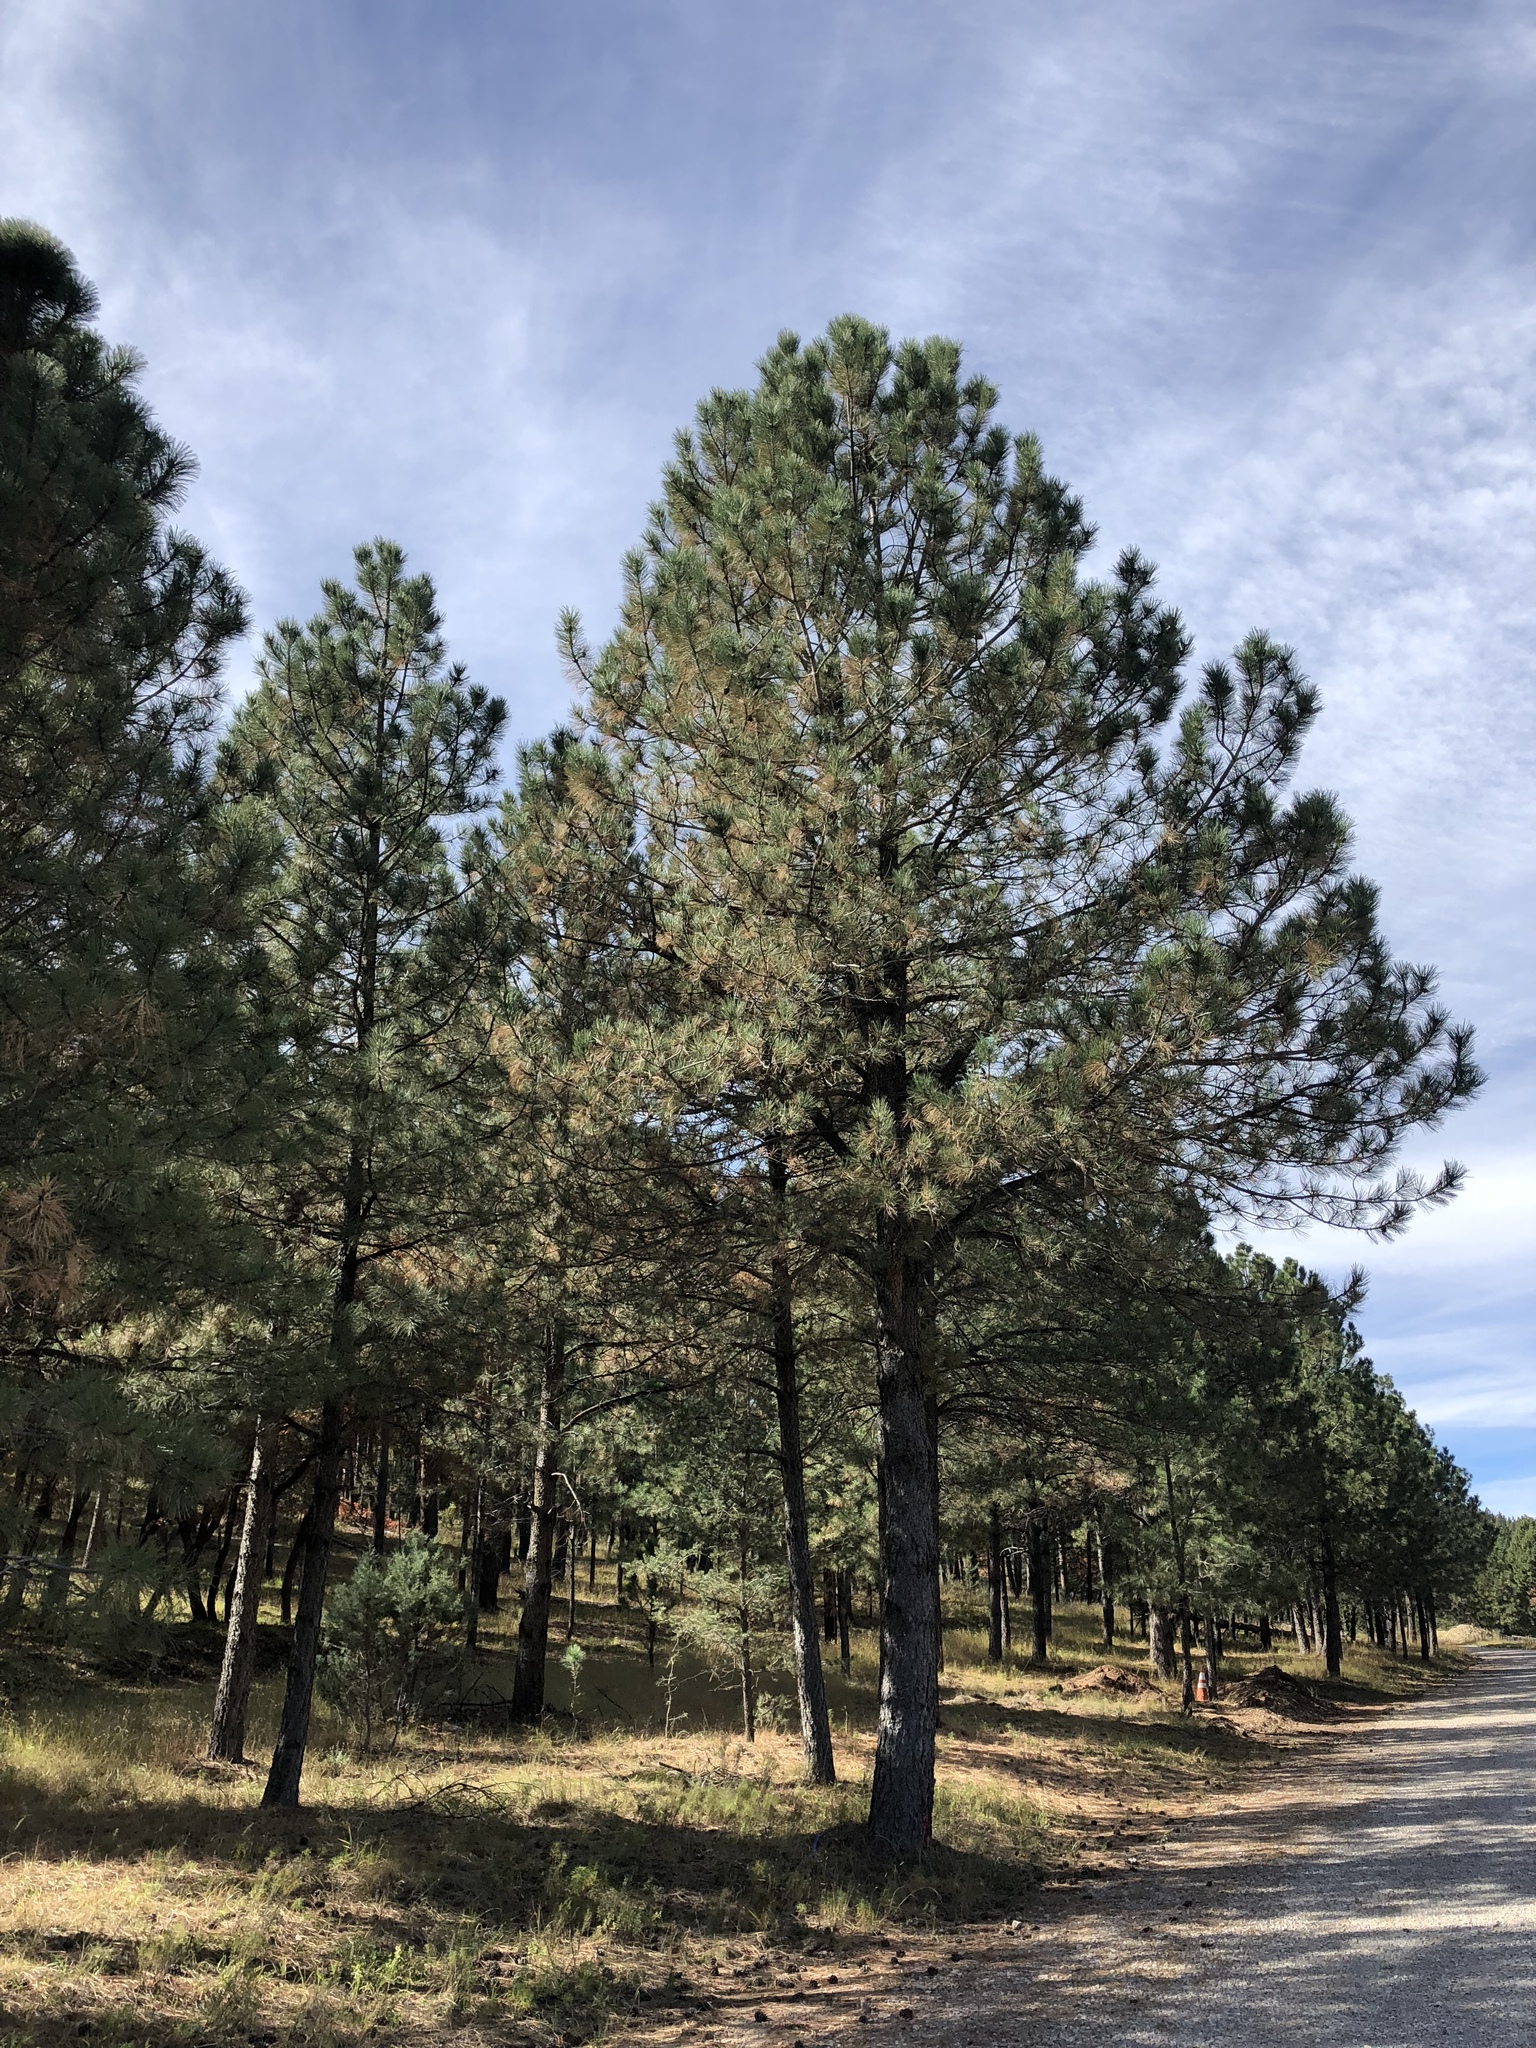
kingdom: Plantae
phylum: Tracheophyta
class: Pinopsida
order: Pinales
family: Pinaceae
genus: Pinus
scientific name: Pinus ponderosa
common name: Western yellow-pine
